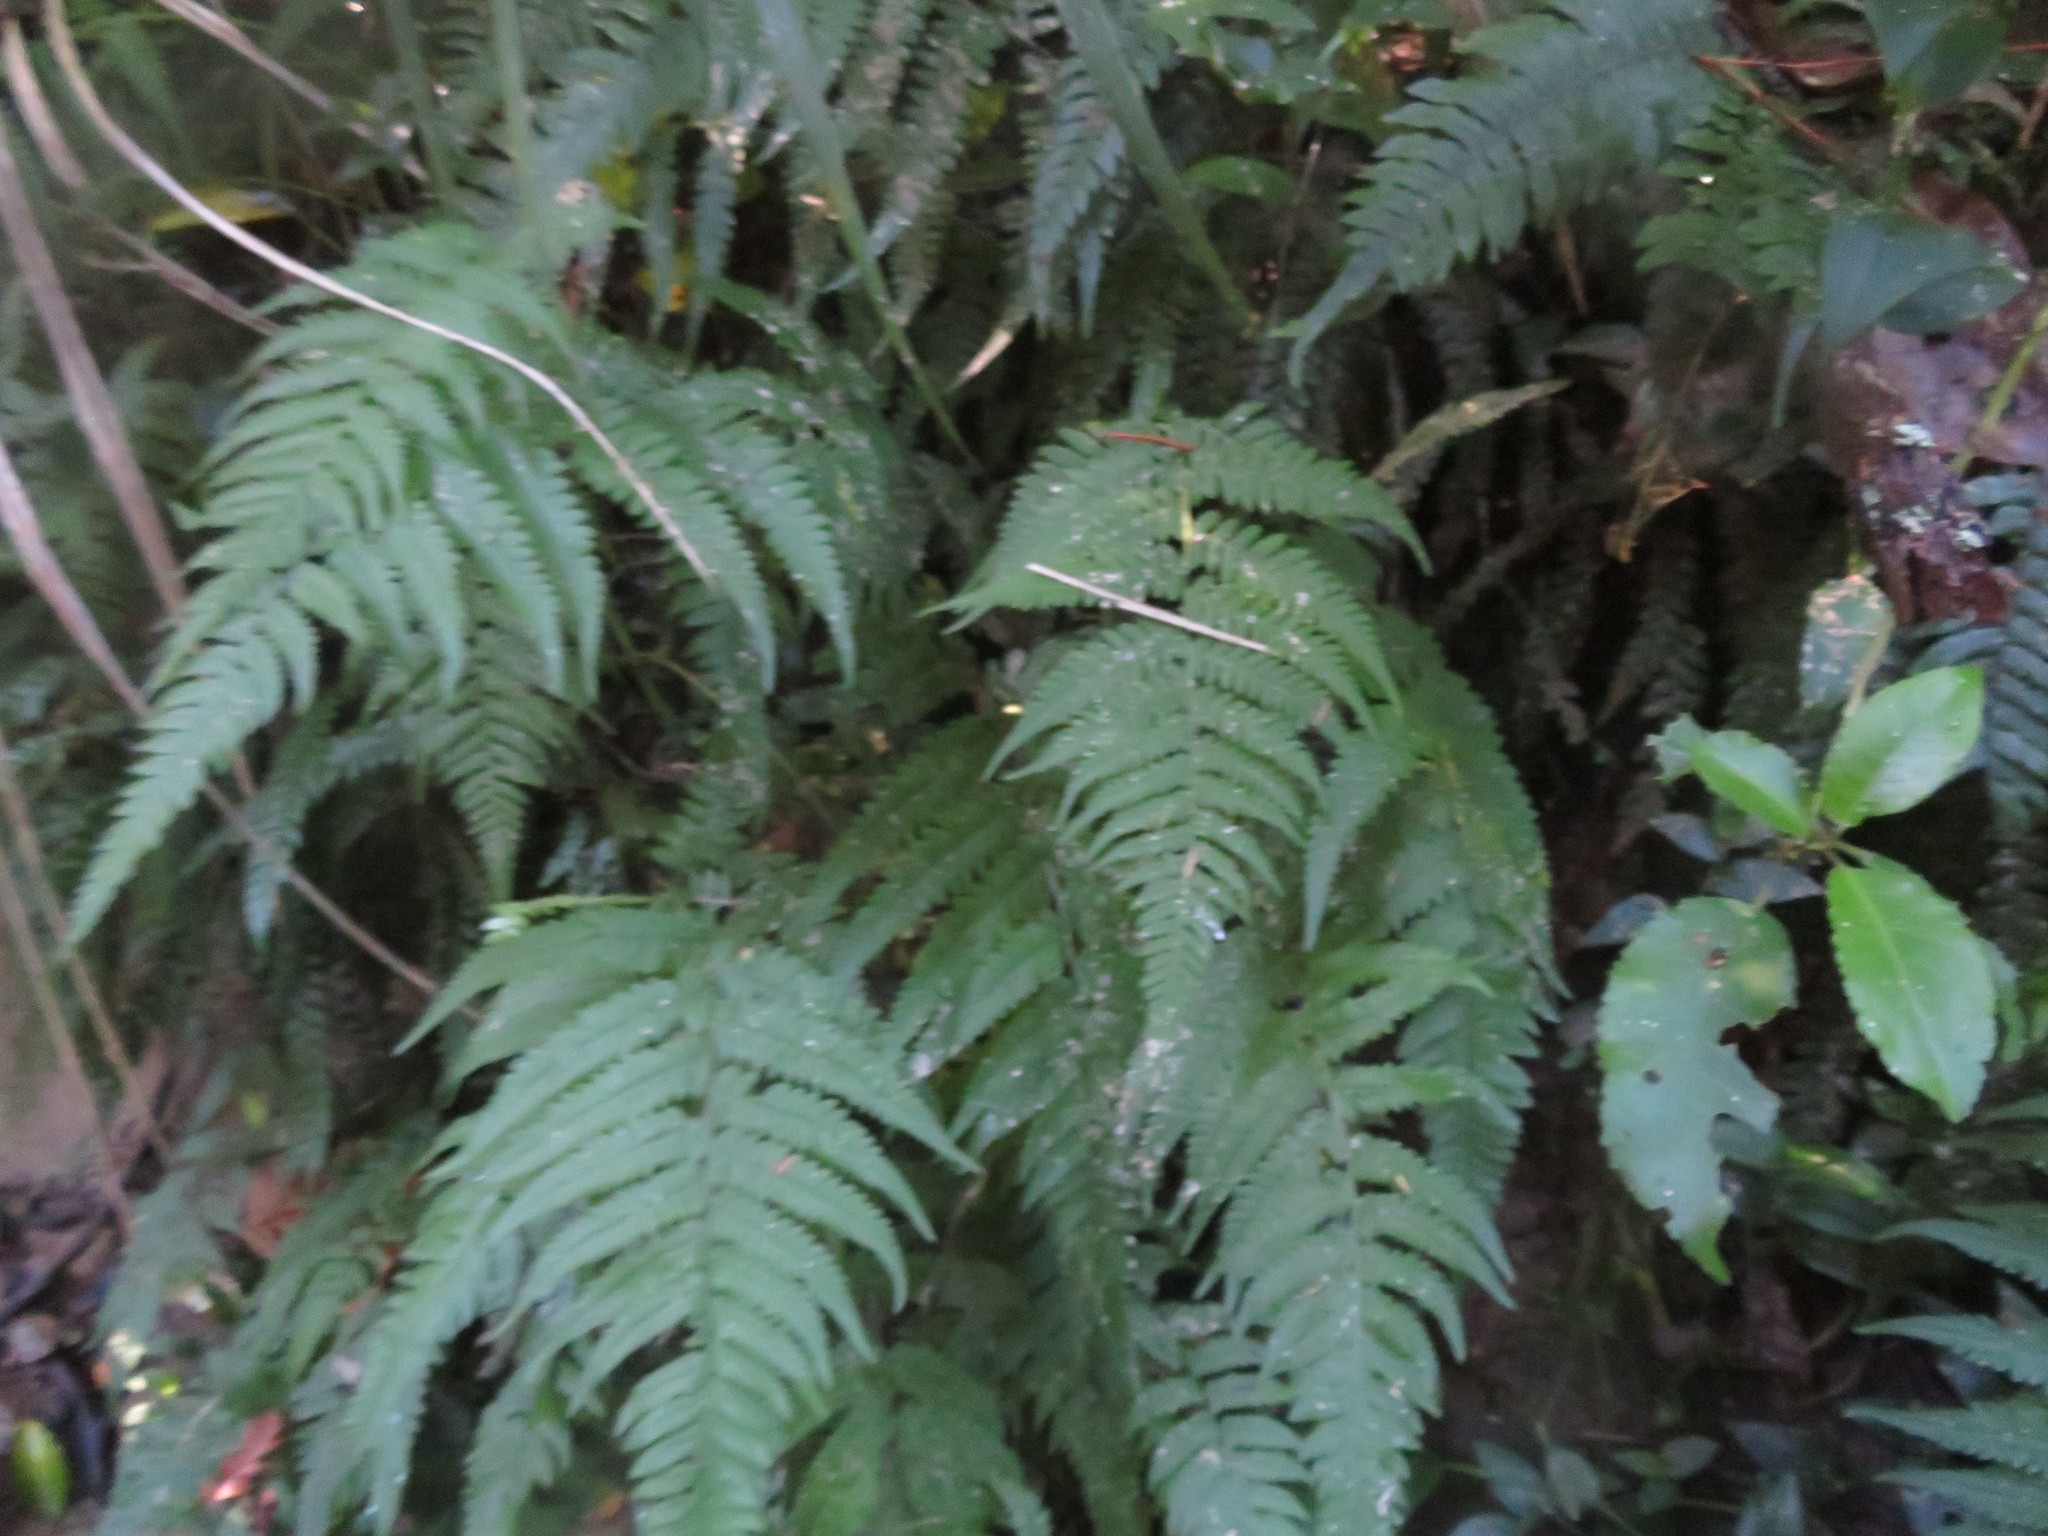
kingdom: Plantae
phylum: Tracheophyta
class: Magnoliopsida
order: Malpighiales
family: Violaceae
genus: Melicytus
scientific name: Melicytus ramiflorus
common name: Mahoe
